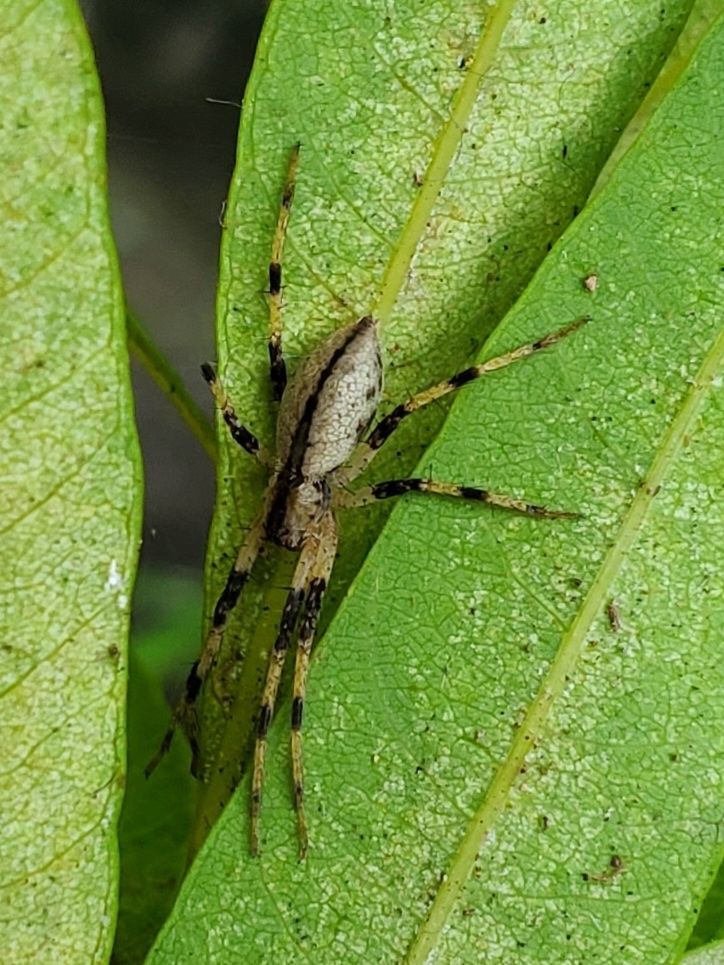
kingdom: Animalia
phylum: Arthropoda
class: Arachnida
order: Araneae
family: Pisauridae
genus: Pisaurina
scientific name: Pisaurina mira
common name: American nursery web spider
